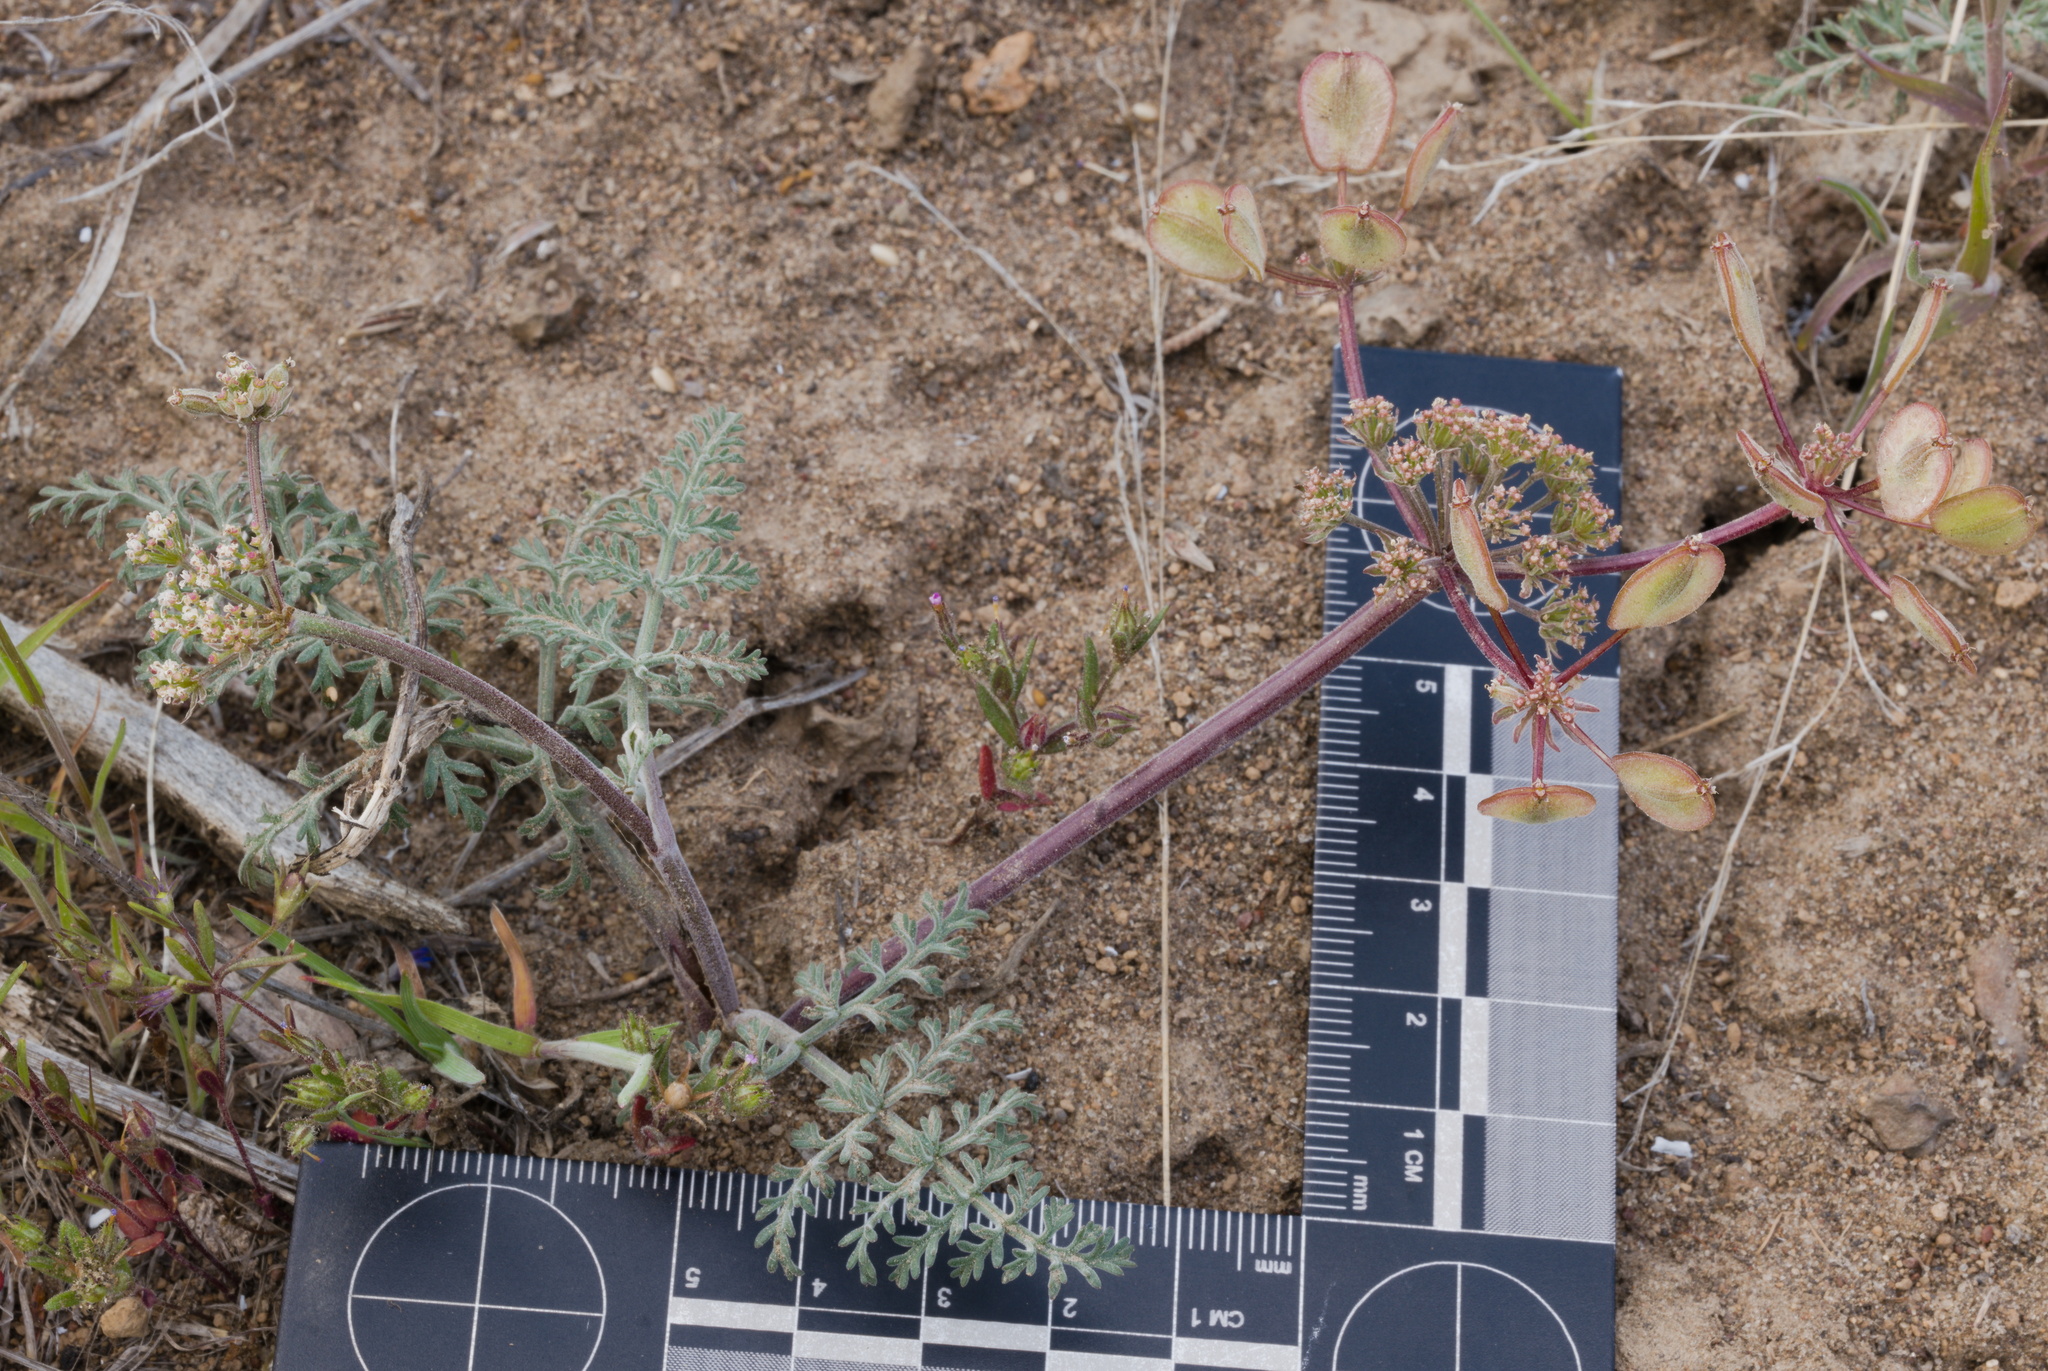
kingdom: Plantae
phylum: Tracheophyta
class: Magnoliopsida
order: Apiales
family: Apiaceae
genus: Lomatium
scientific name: Lomatium macrocarpum
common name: Big-seed biscuitroot
